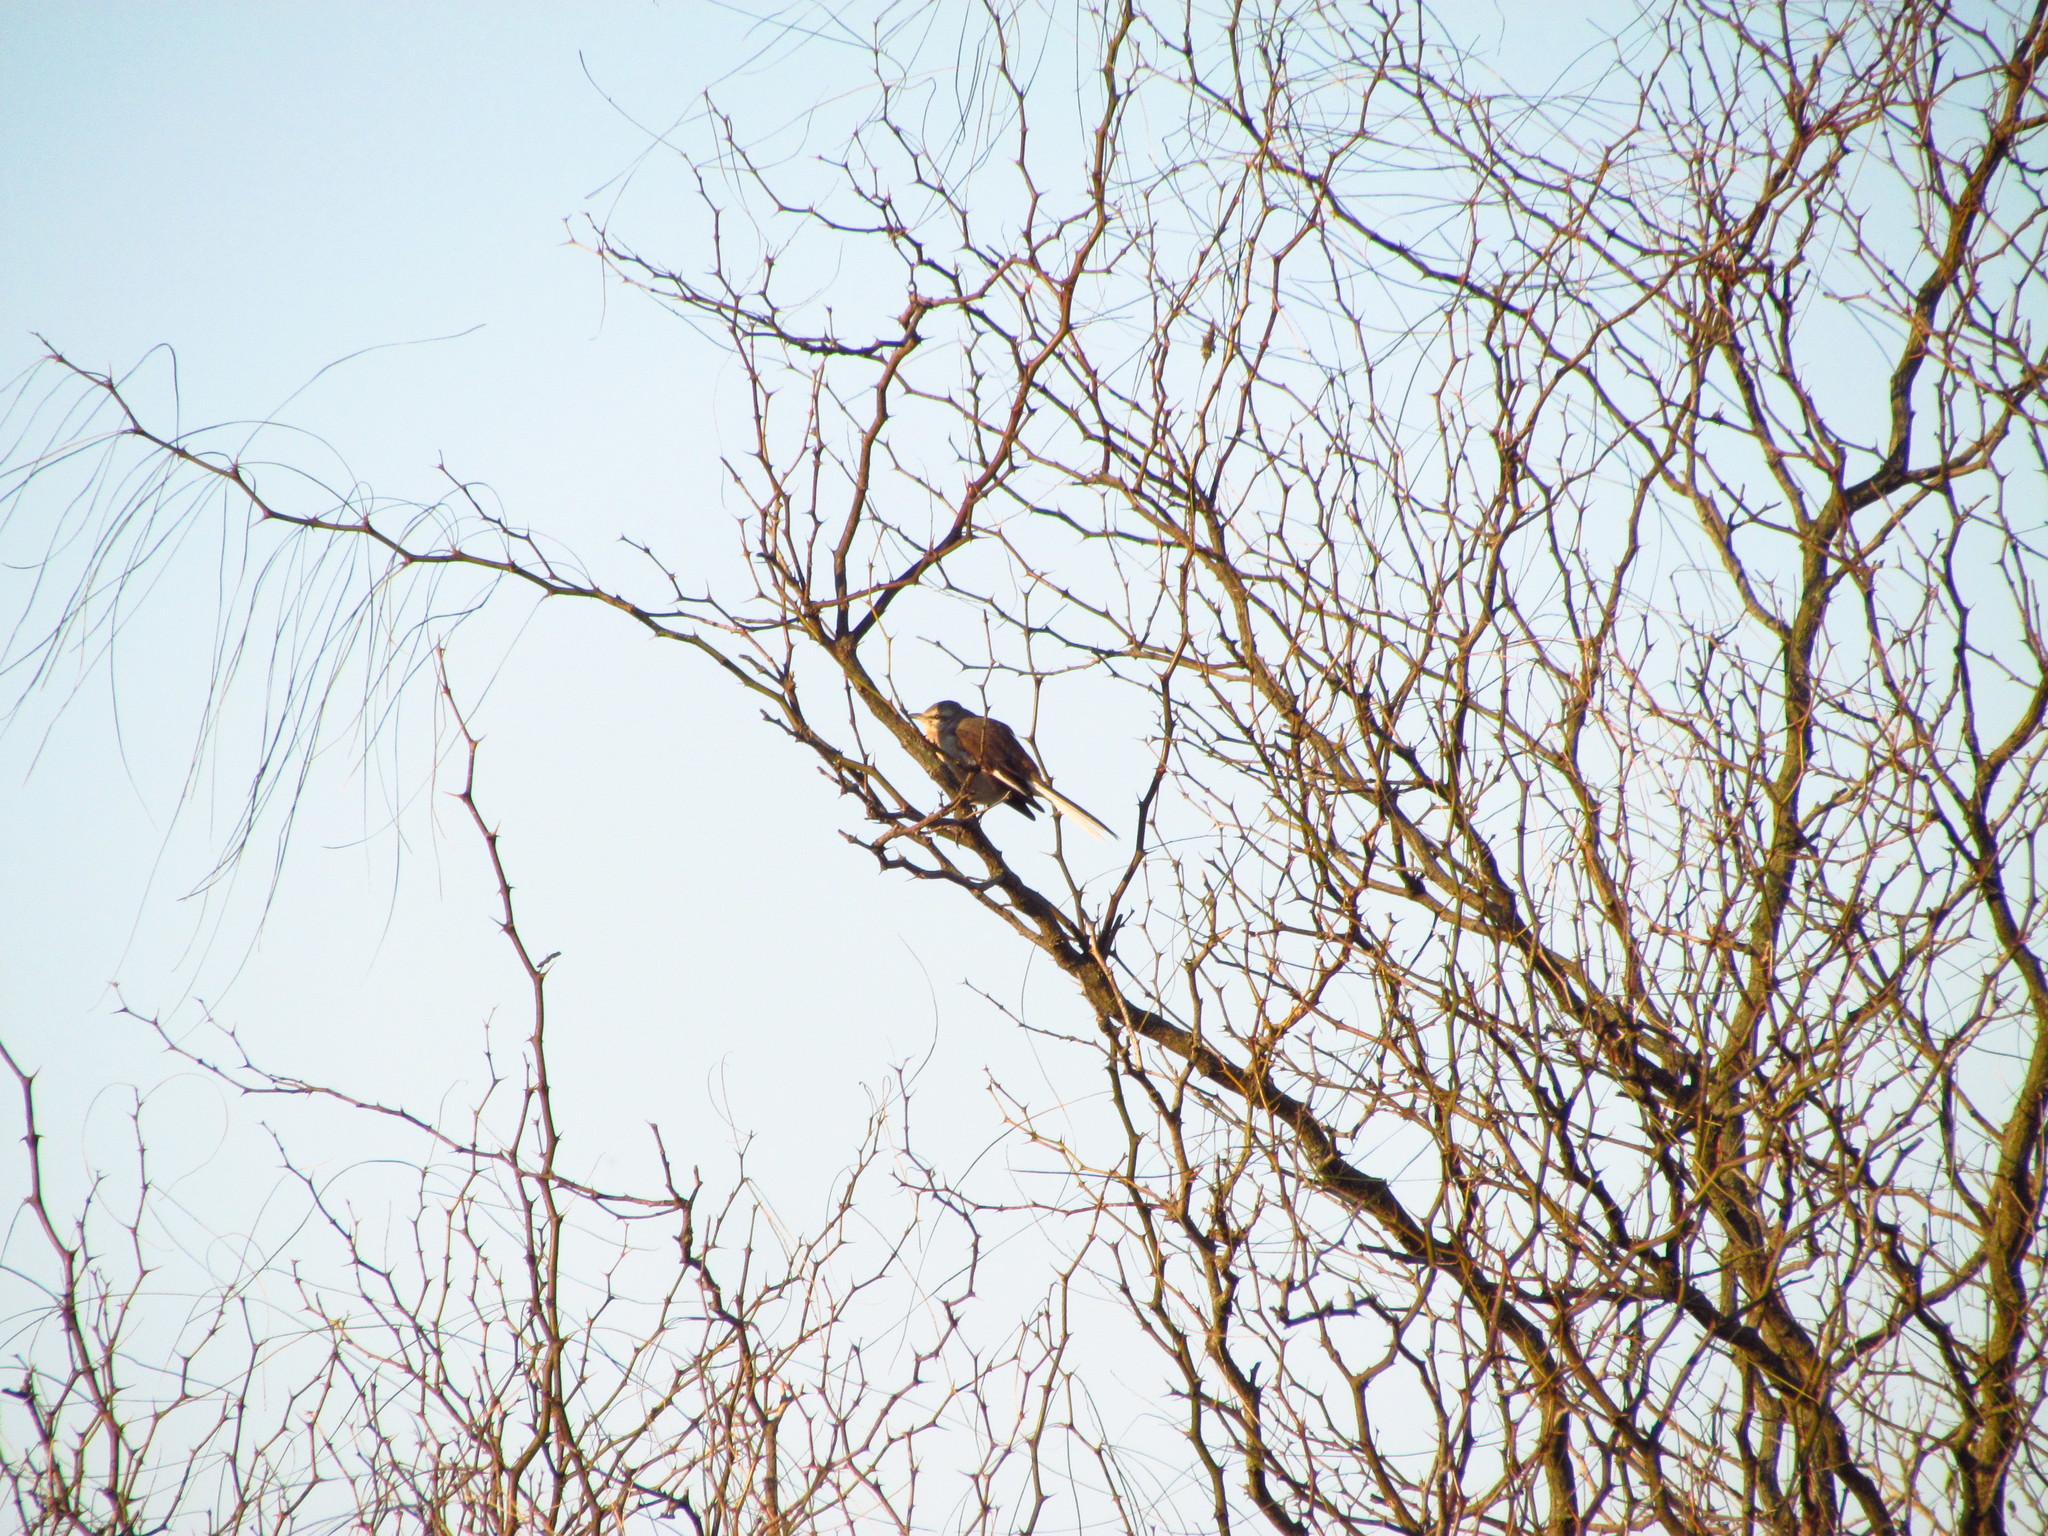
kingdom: Animalia
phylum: Chordata
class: Aves
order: Passeriformes
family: Mimidae
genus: Mimus
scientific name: Mimus triurus
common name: White-banded mockingbird
